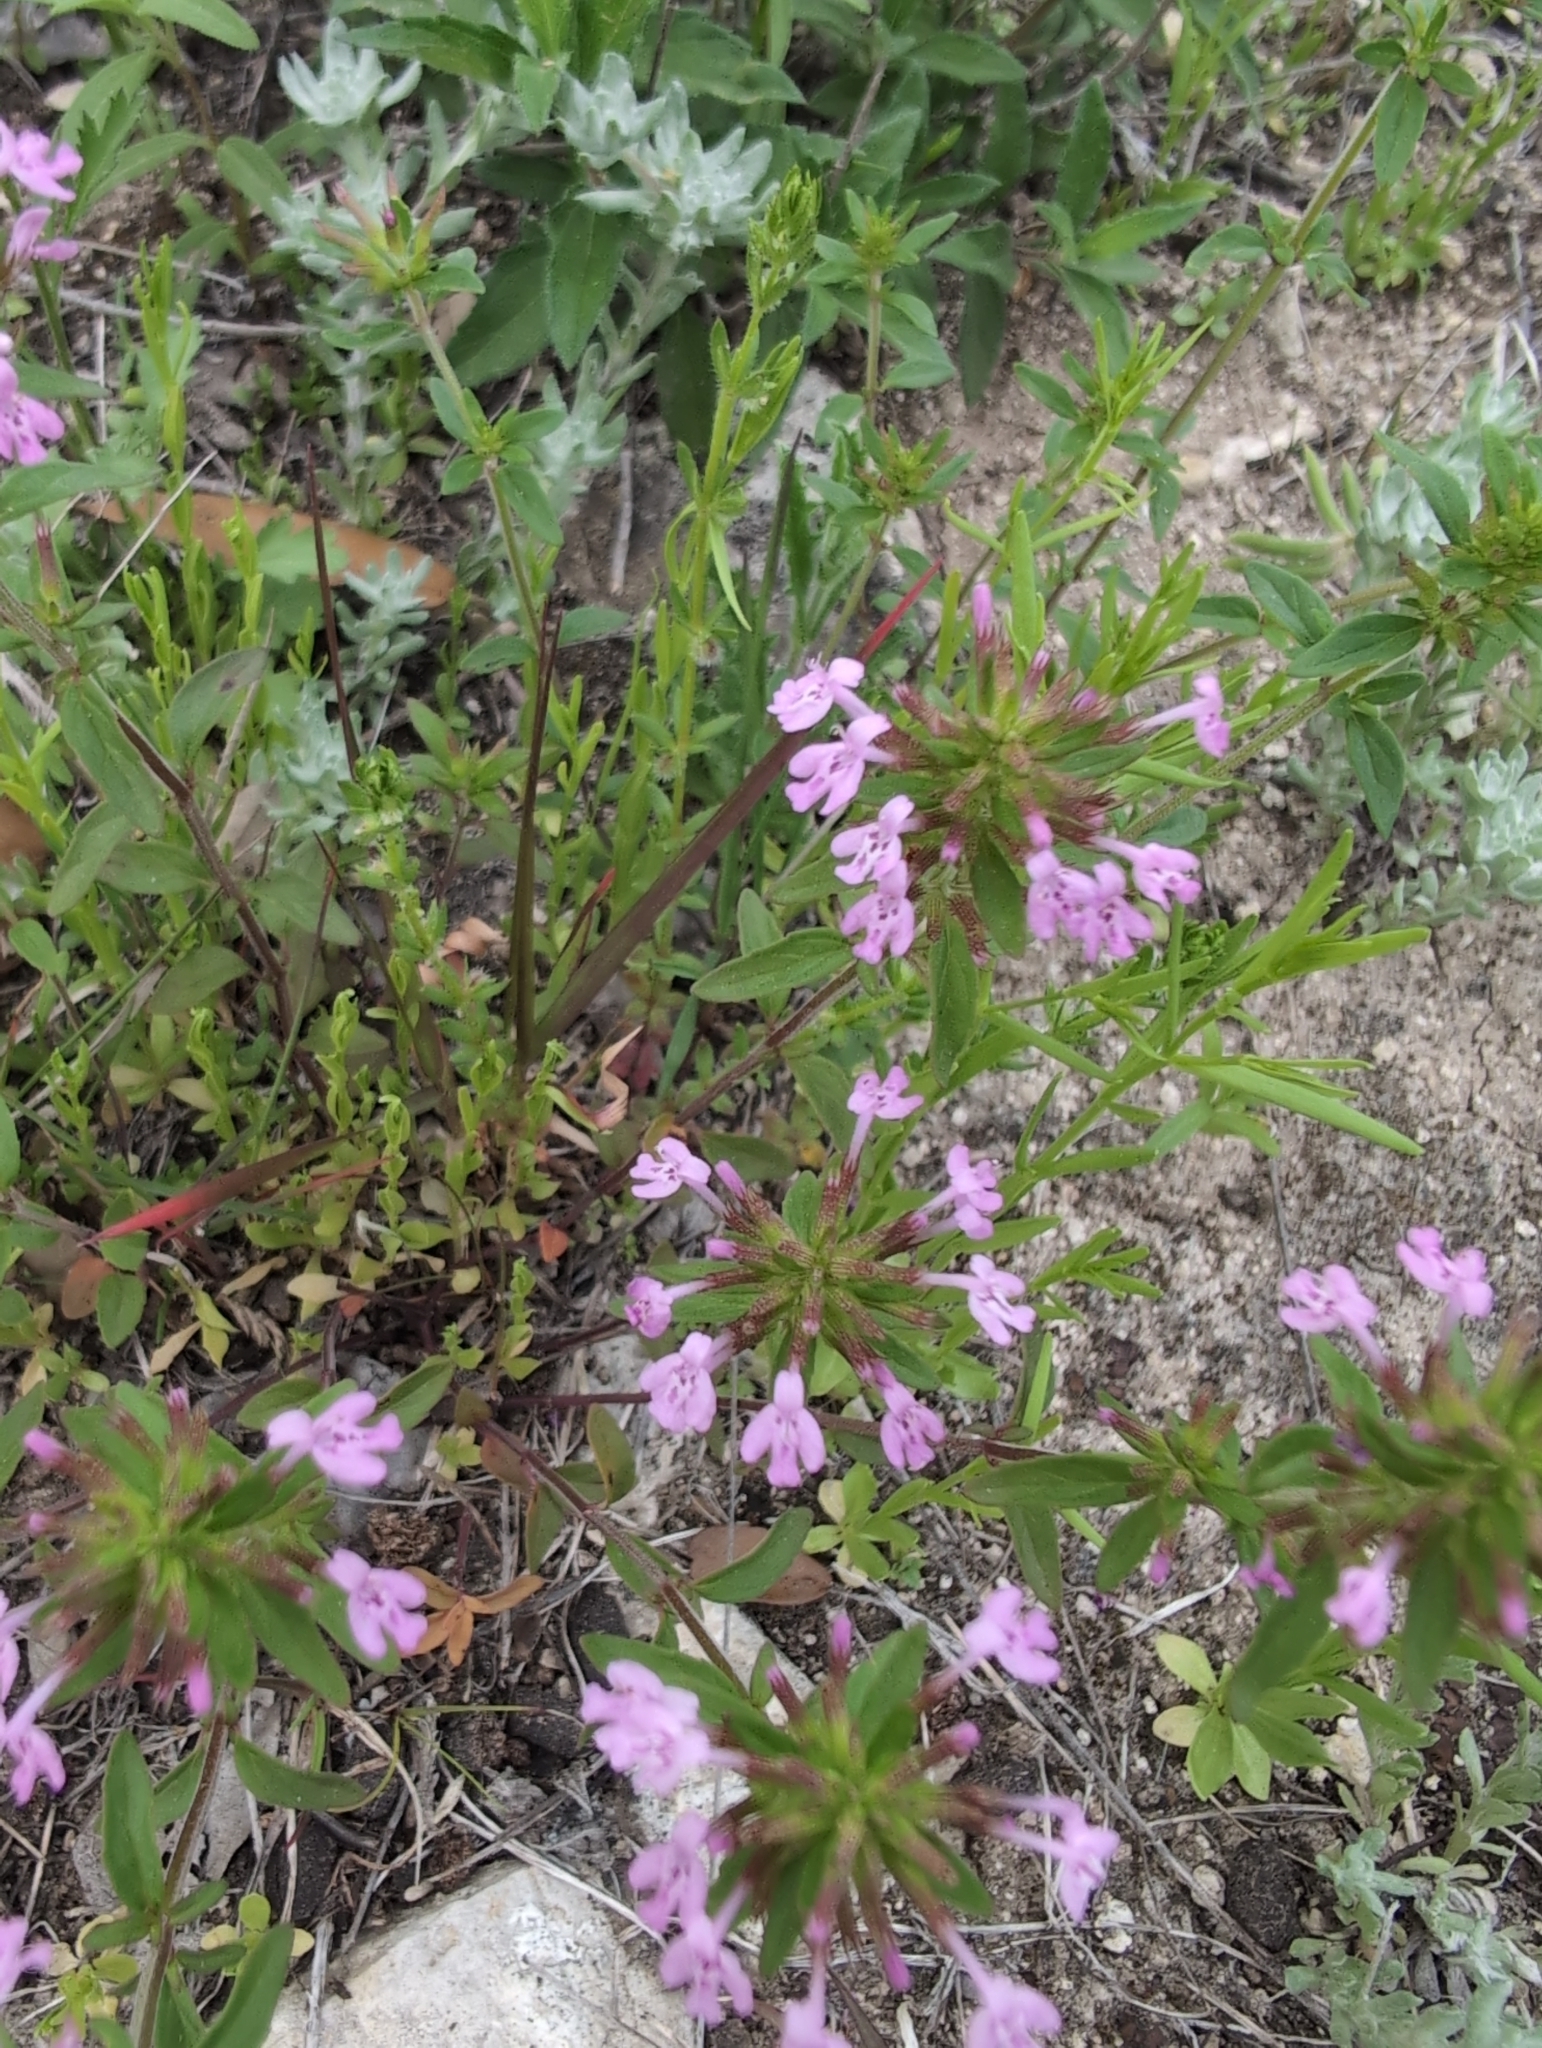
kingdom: Plantae
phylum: Tracheophyta
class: Magnoliopsida
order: Lamiales
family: Lamiaceae
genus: Hedeoma
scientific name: Hedeoma acinoides
